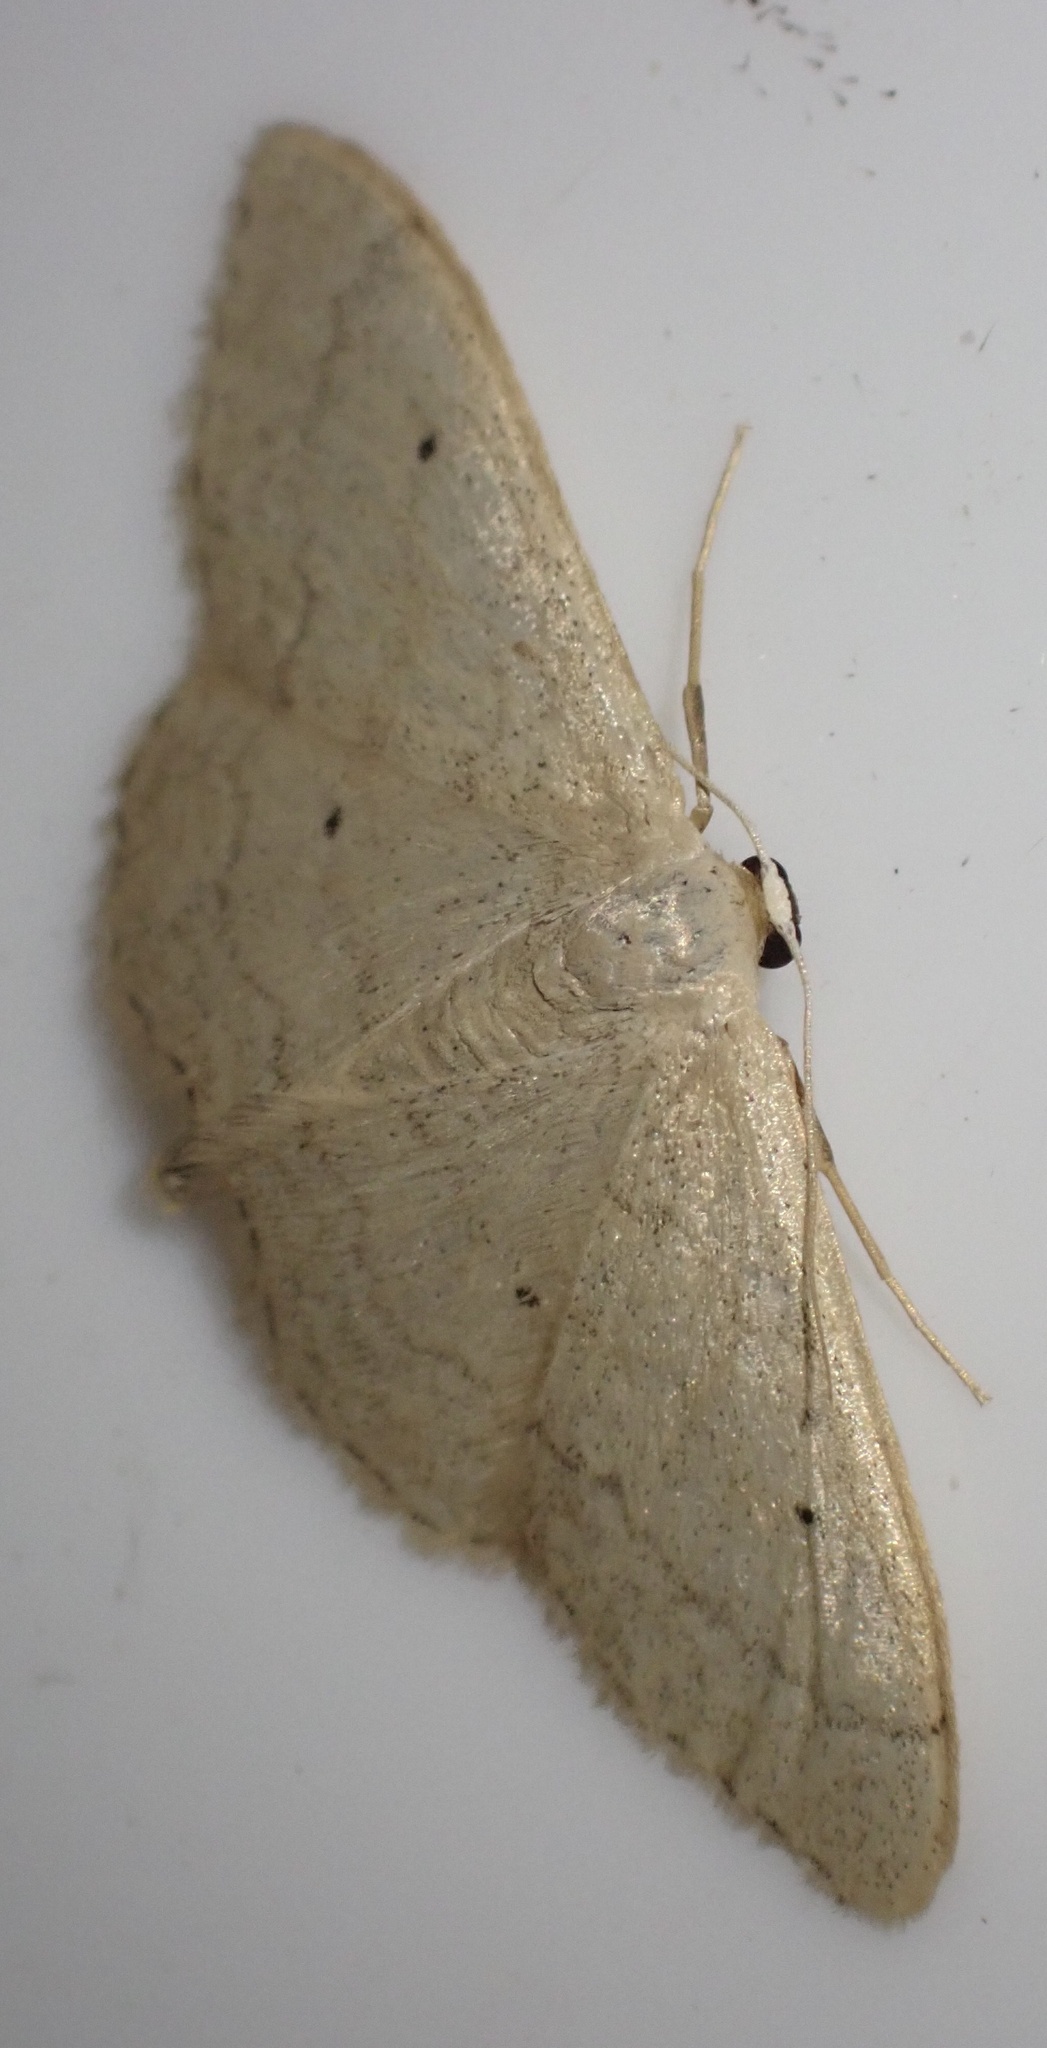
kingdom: Animalia
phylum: Arthropoda
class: Insecta
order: Lepidoptera
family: Geometridae
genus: Idaea
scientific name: Idaea straminata
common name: Plain wave
